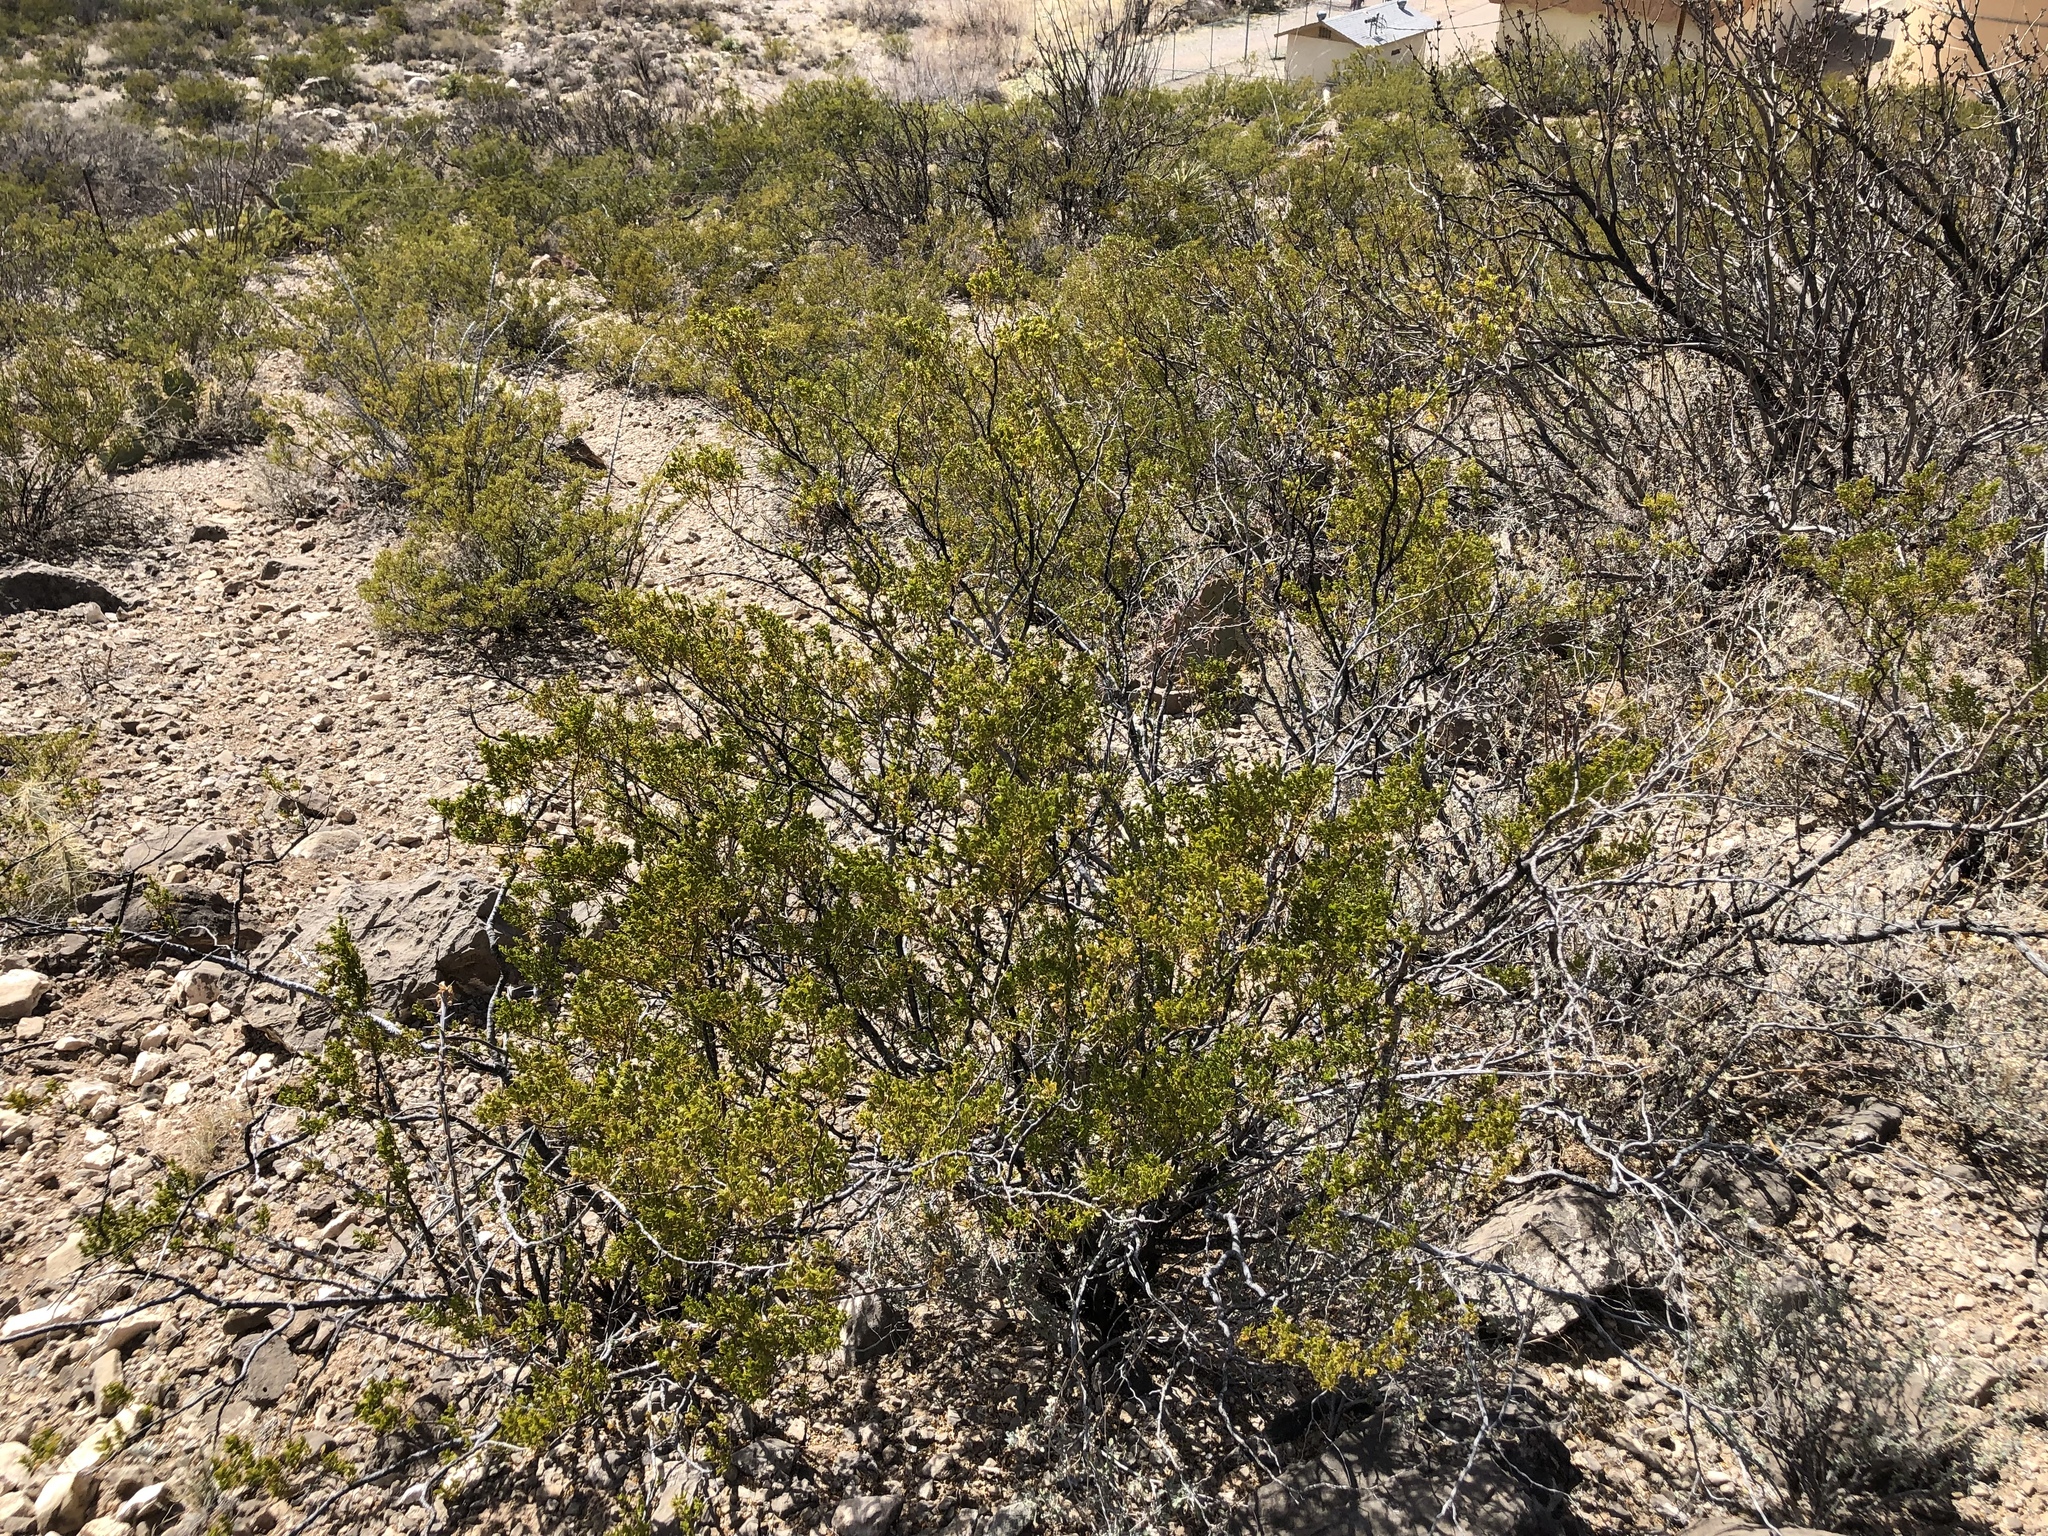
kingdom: Plantae
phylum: Tracheophyta
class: Magnoliopsida
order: Zygophyllales
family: Zygophyllaceae
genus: Larrea
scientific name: Larrea tridentata
